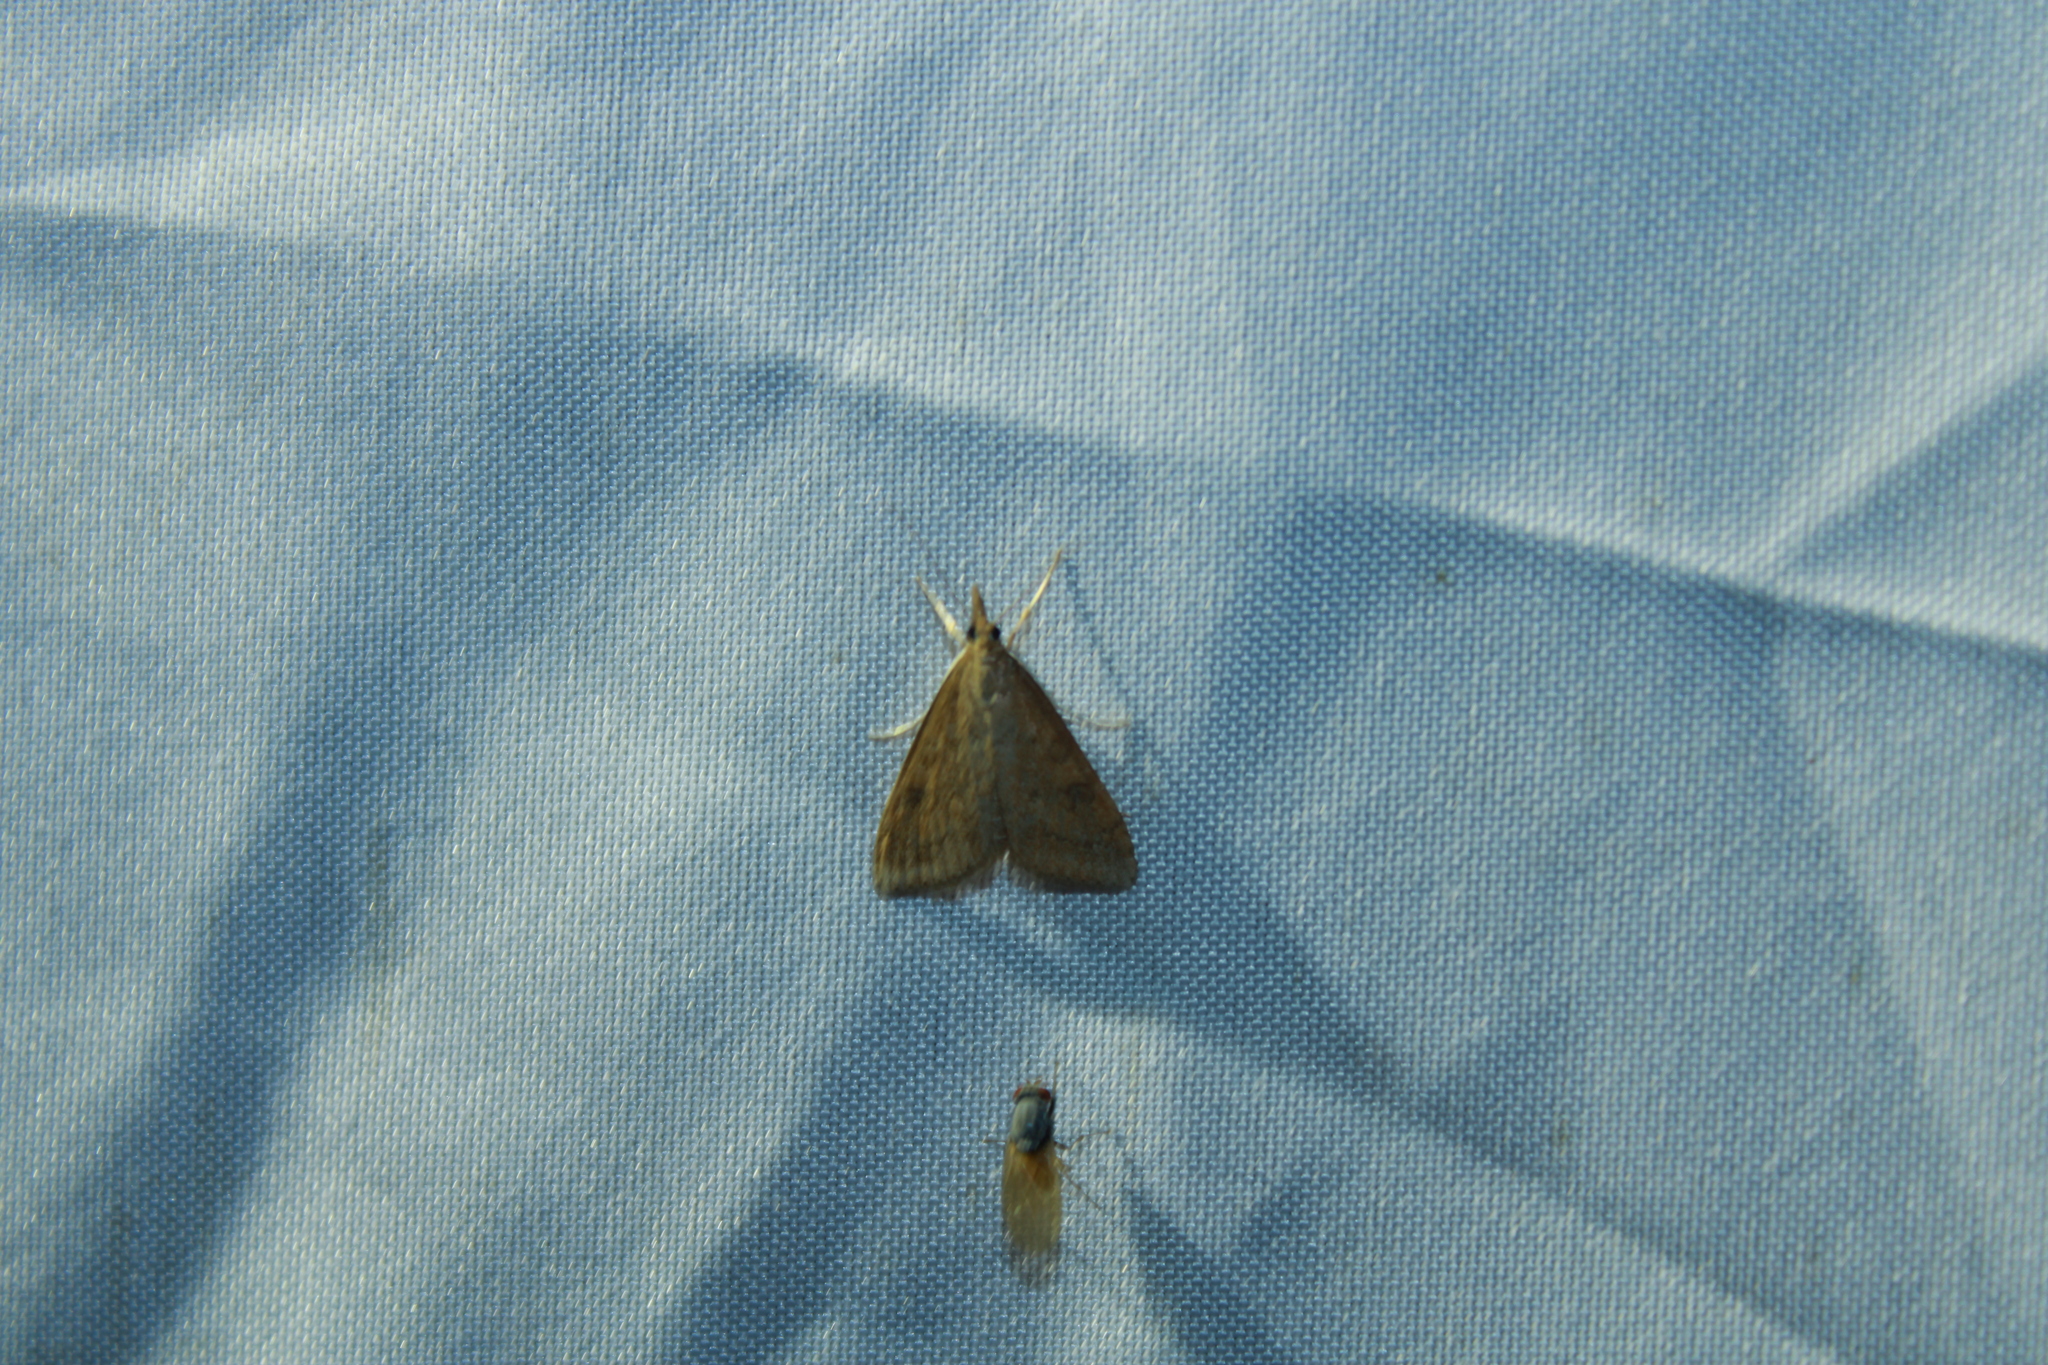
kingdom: Animalia
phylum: Arthropoda
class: Insecta
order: Lepidoptera
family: Crambidae
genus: Udea
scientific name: Udea rubigalis
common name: Celery leaftier moth
